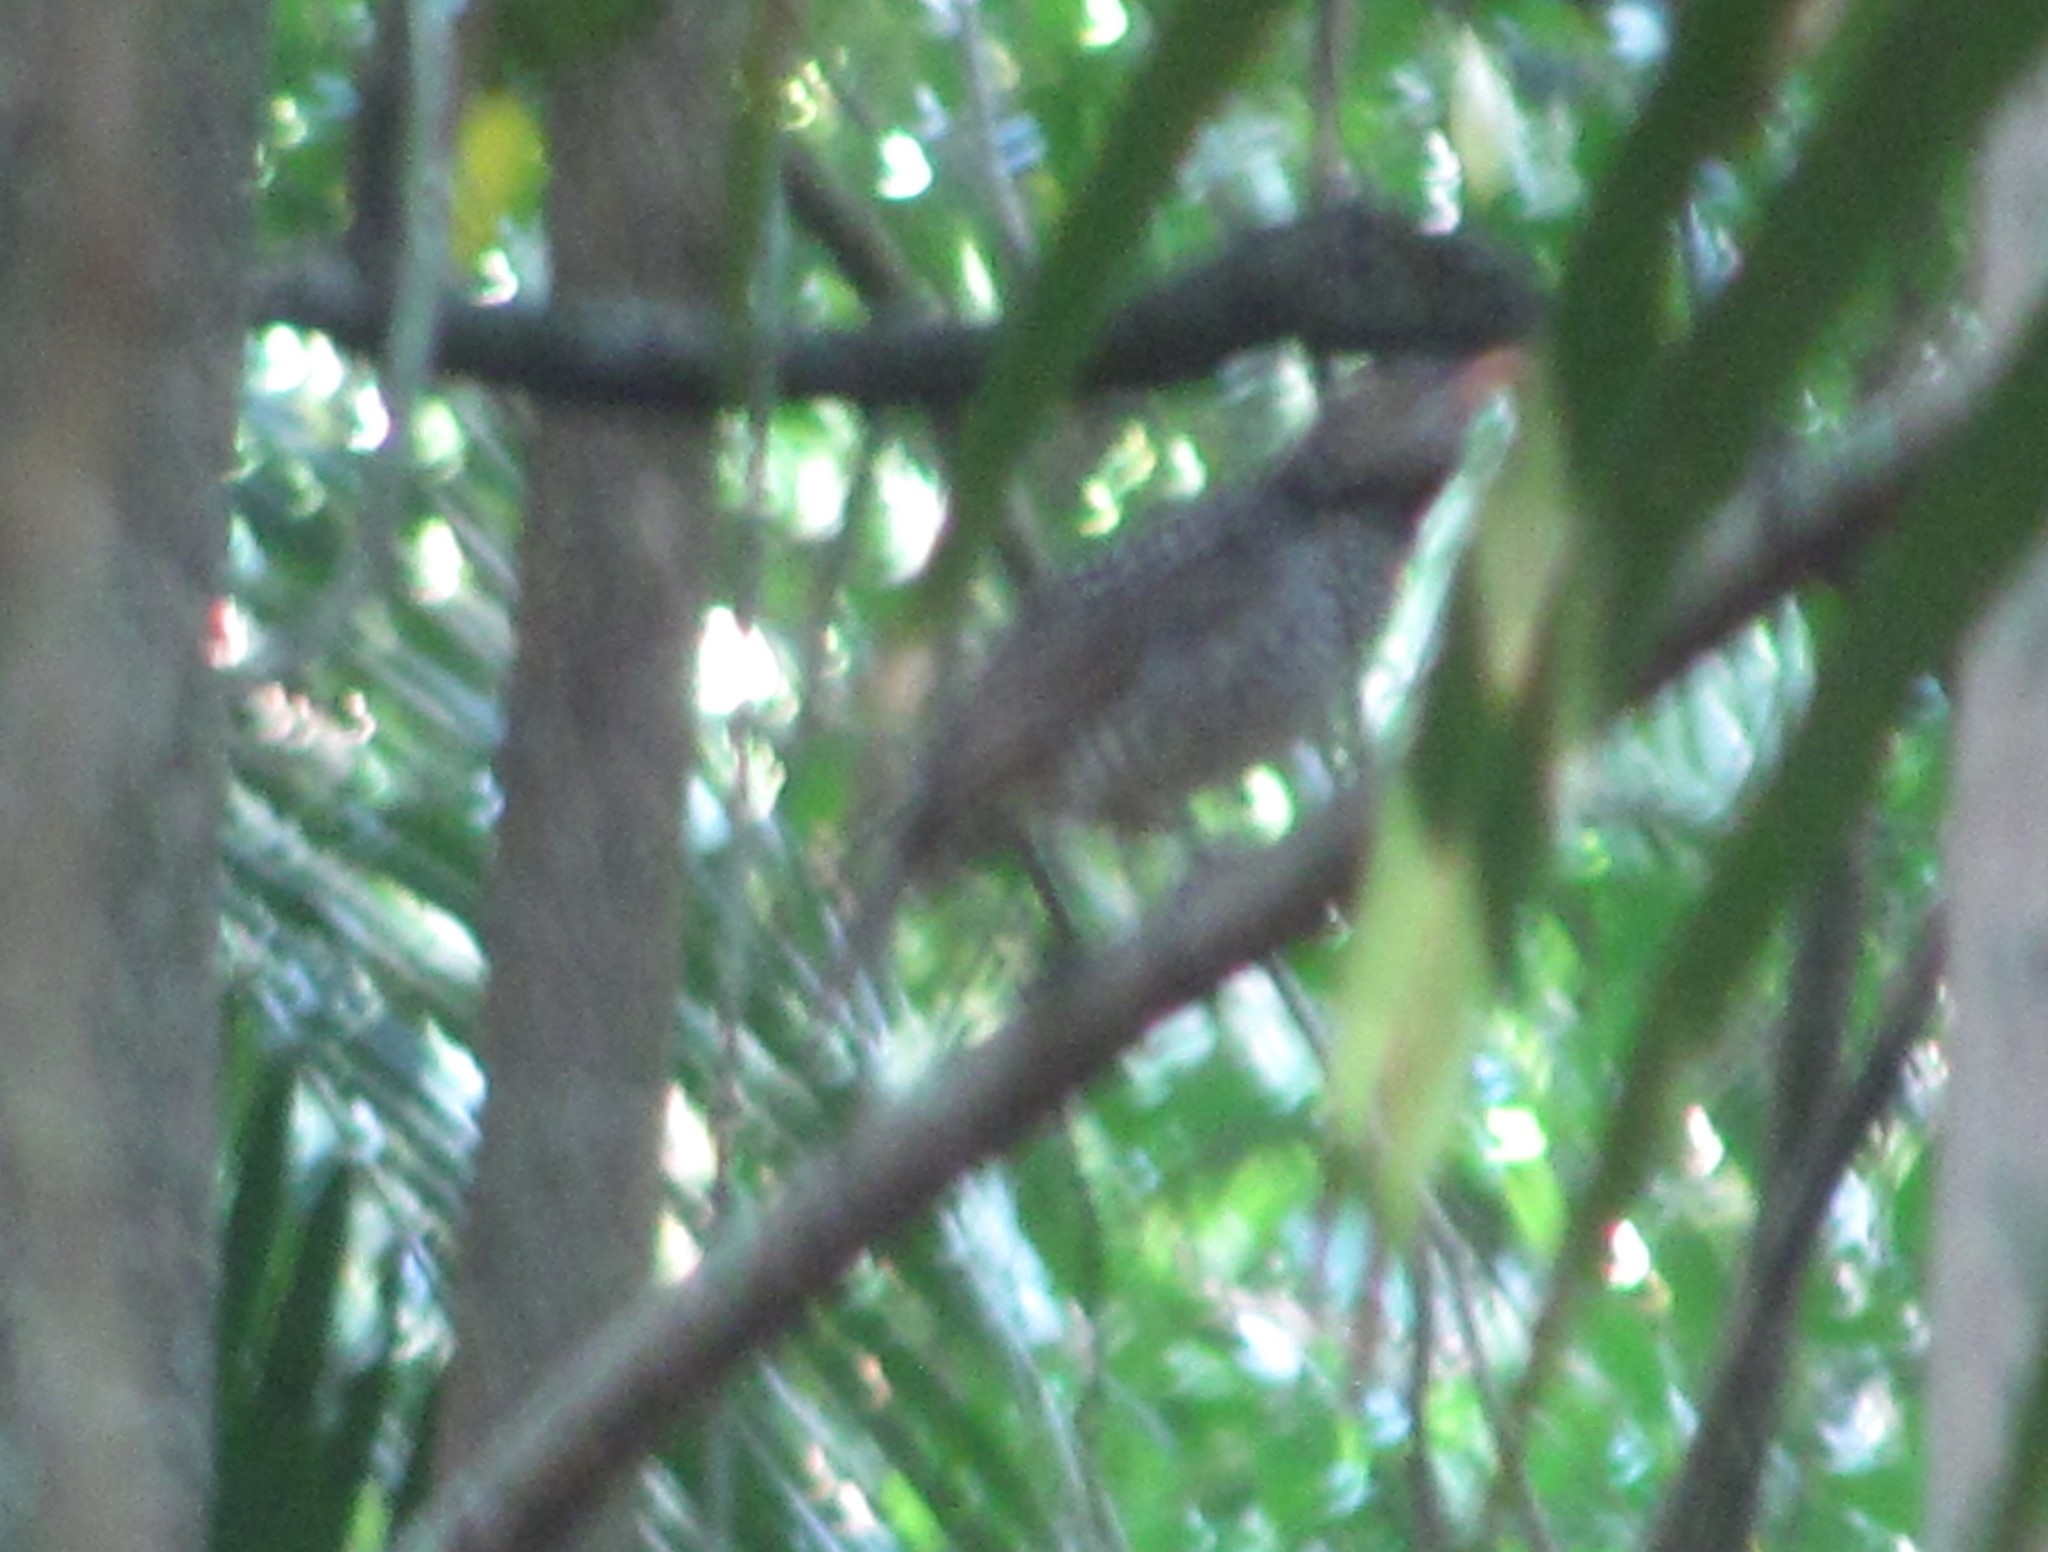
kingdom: Animalia
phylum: Chordata
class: Aves
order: Passeriformes
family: Ptilonorhynchidae
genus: Sericulus
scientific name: Sericulus chrysocephalus
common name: Regent bowerbird
